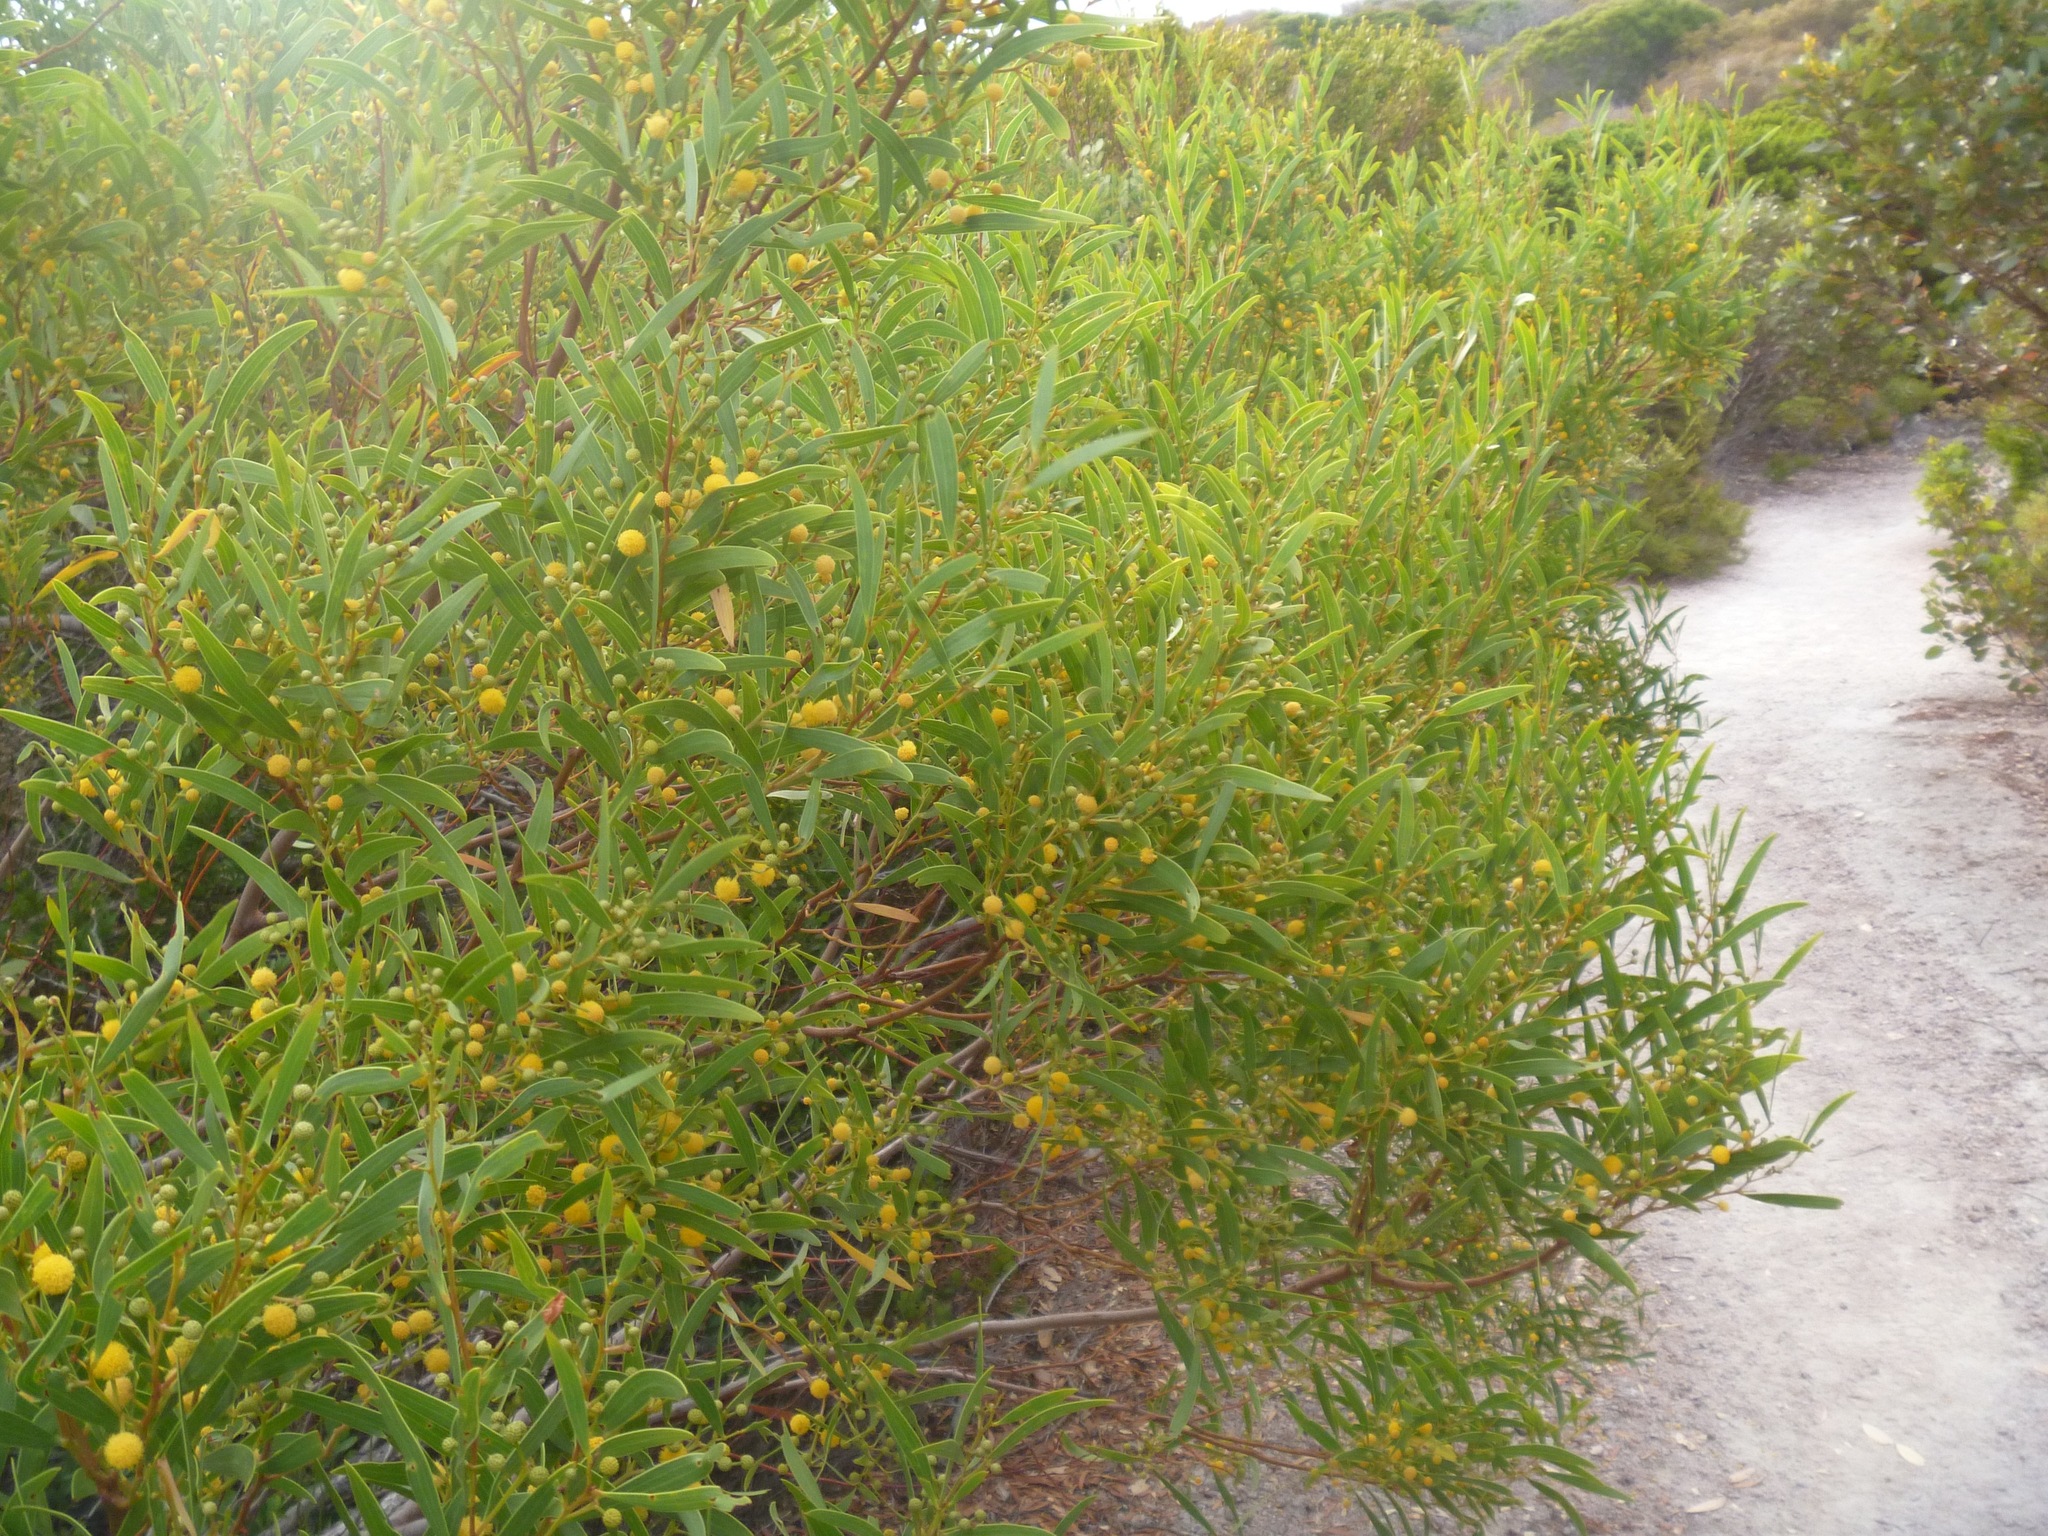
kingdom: Plantae
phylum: Tracheophyta
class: Magnoliopsida
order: Fabales
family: Fabaceae
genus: Acacia
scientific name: Acacia cyclops
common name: Coastal wattle
